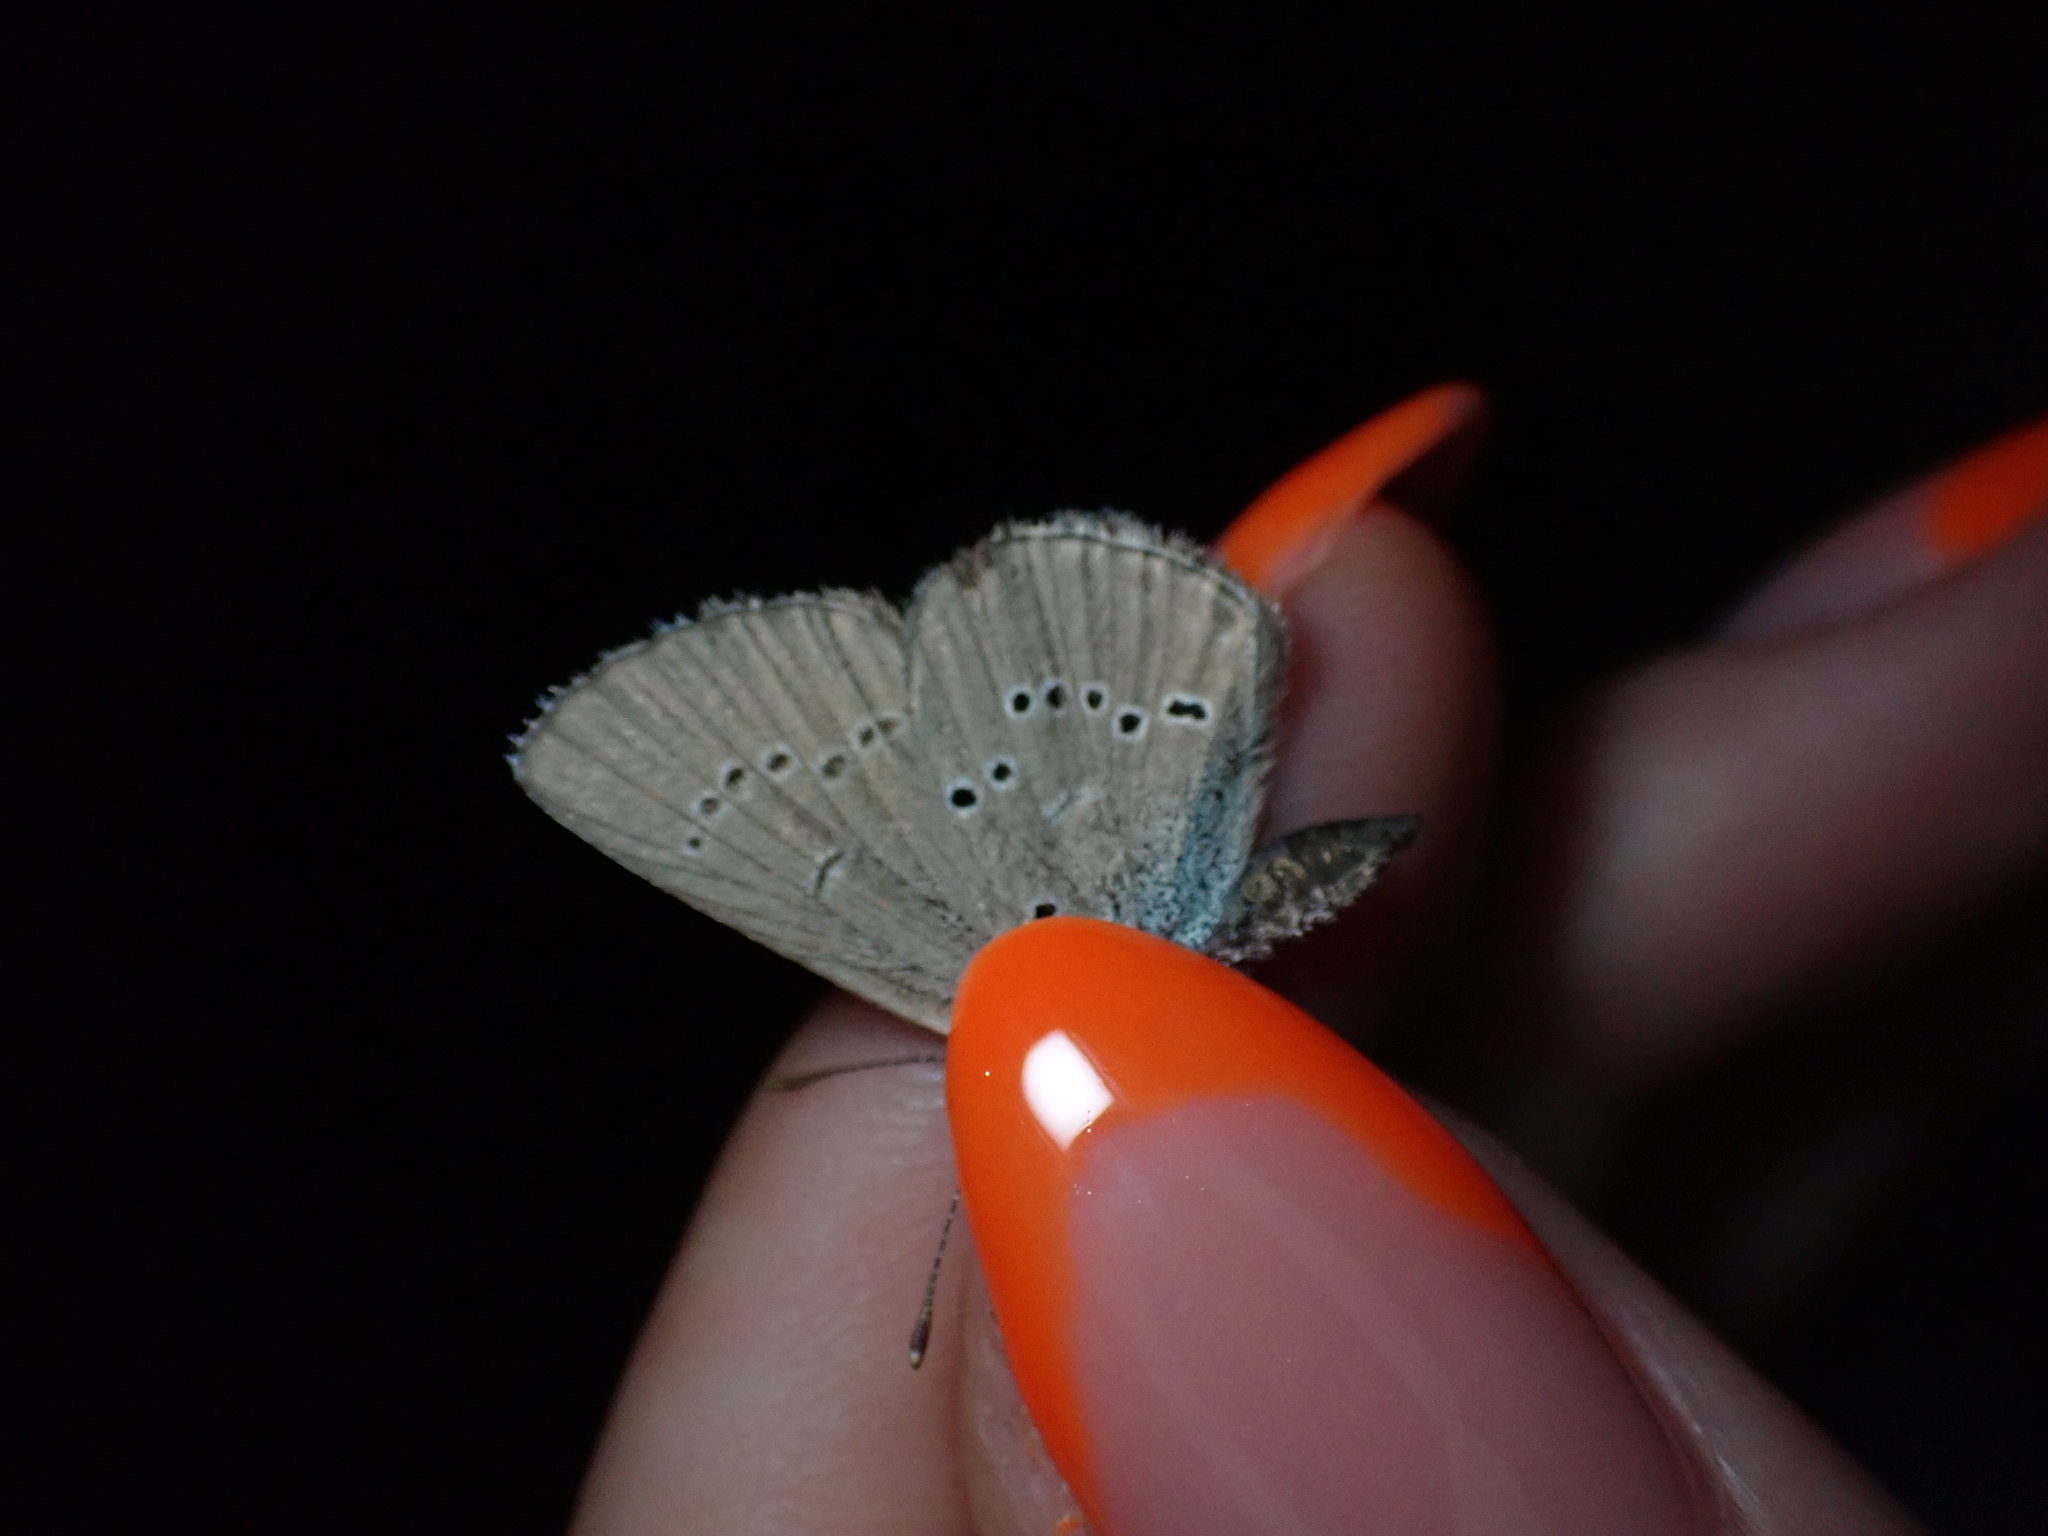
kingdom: Animalia
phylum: Arthropoda
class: Insecta
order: Lepidoptera
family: Lycaenidae
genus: Cyaniris
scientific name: Cyaniris semiargus
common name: Mazarine blue
